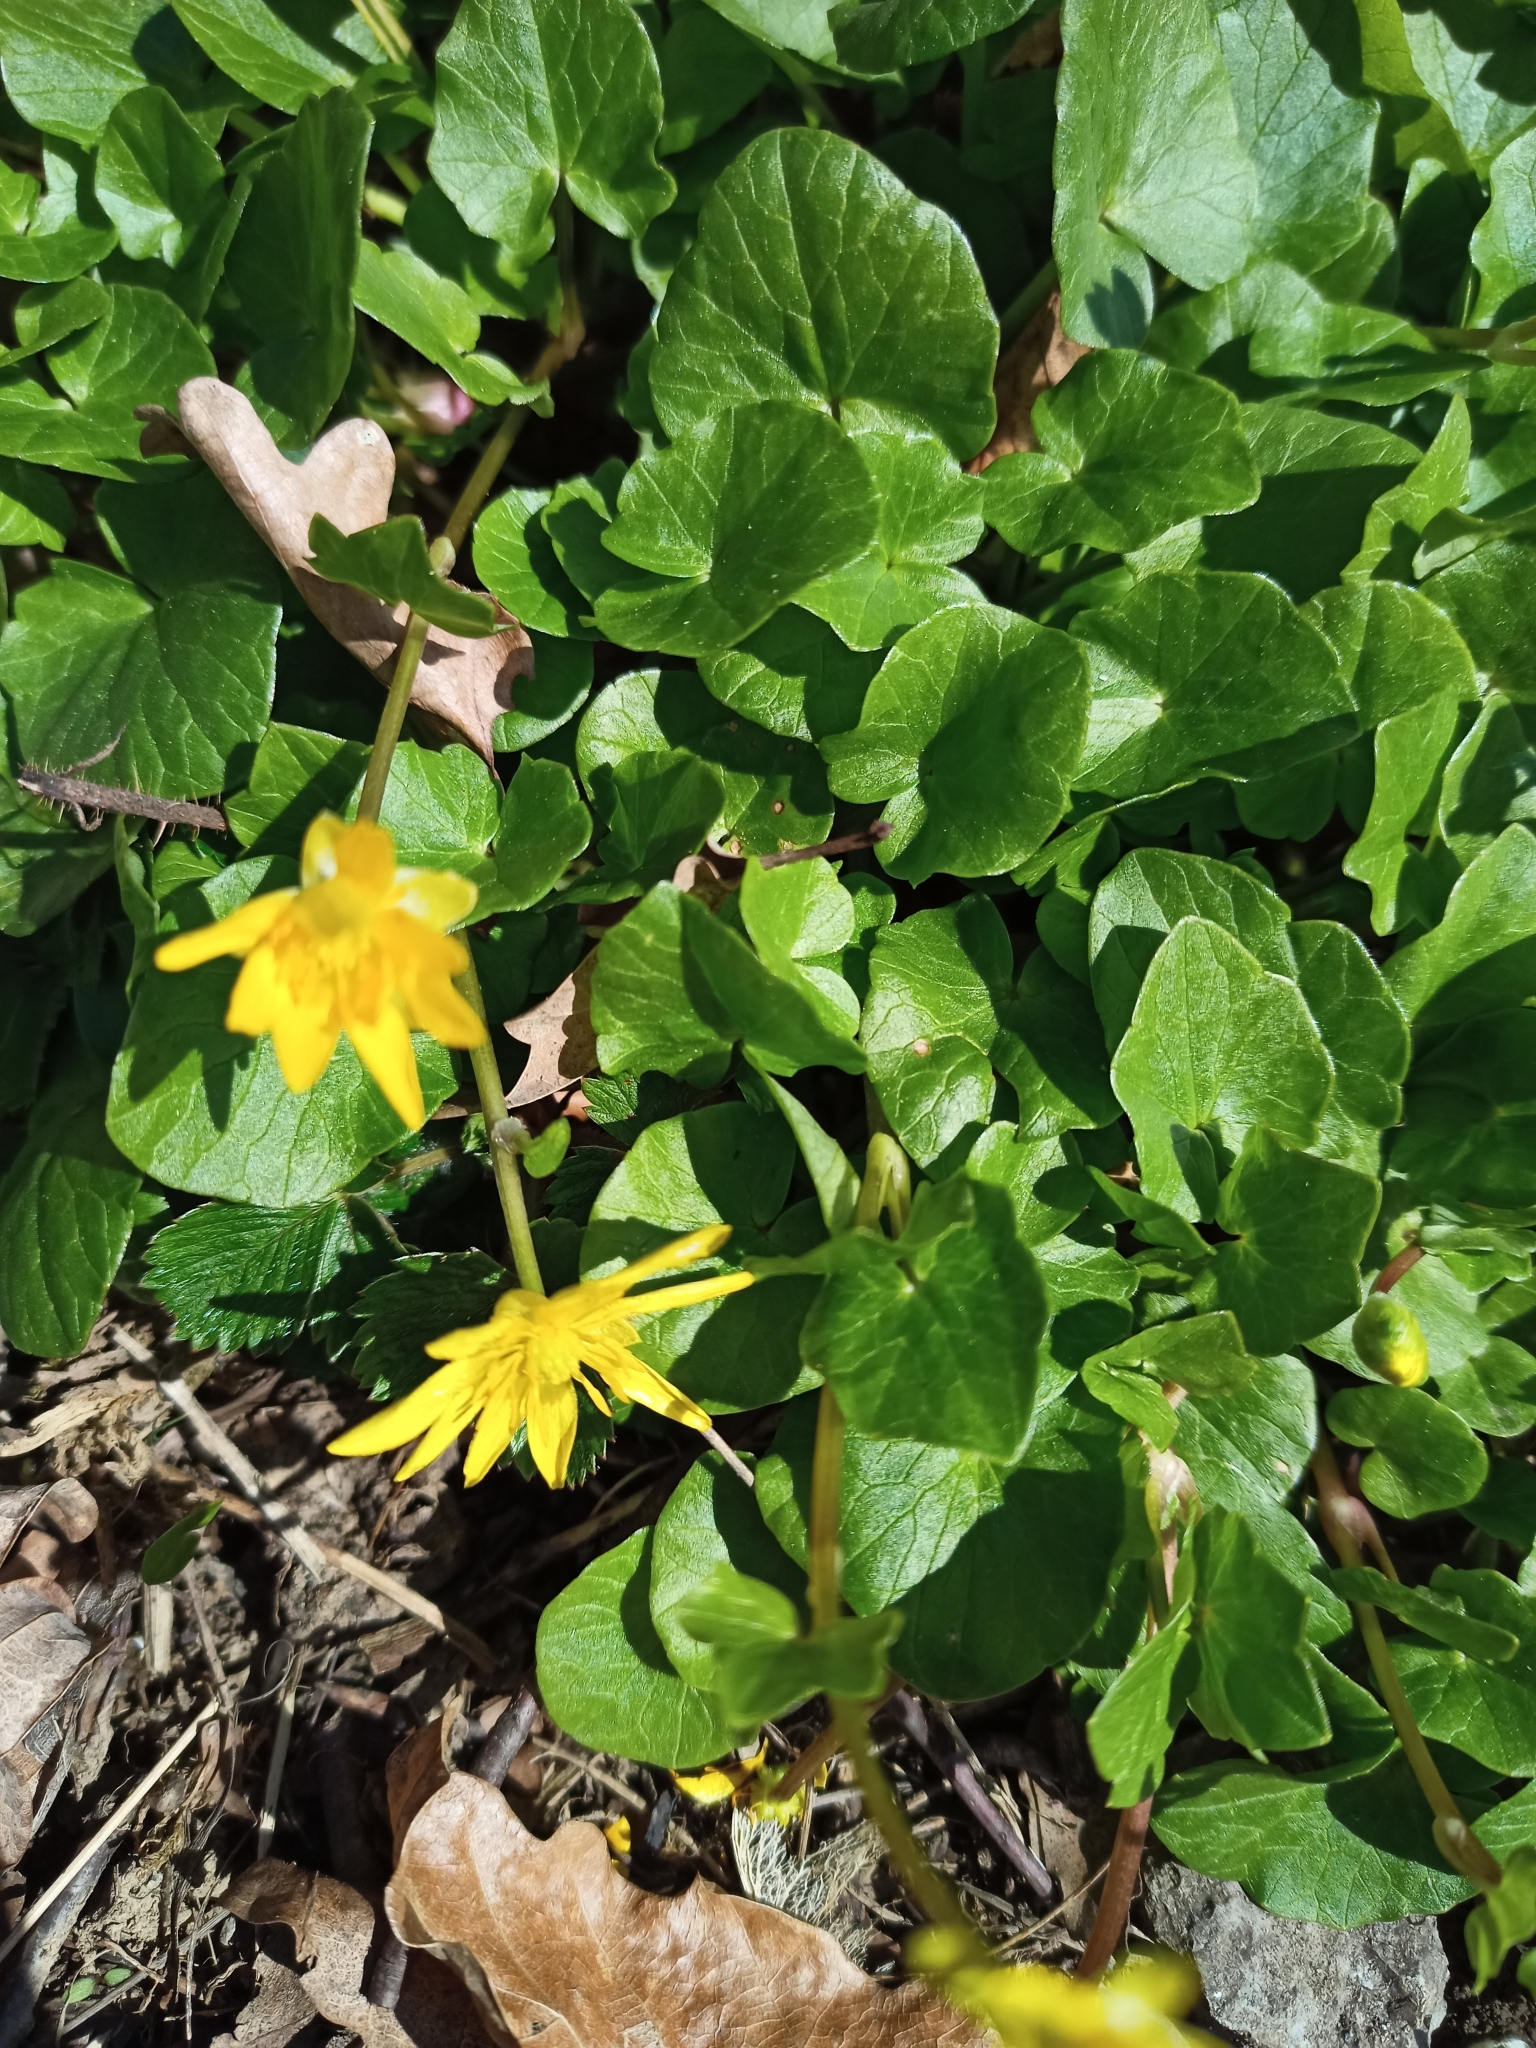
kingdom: Plantae
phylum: Tracheophyta
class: Magnoliopsida
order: Ranunculales
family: Ranunculaceae
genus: Ficaria
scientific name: Ficaria verna
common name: Lesser celandine
